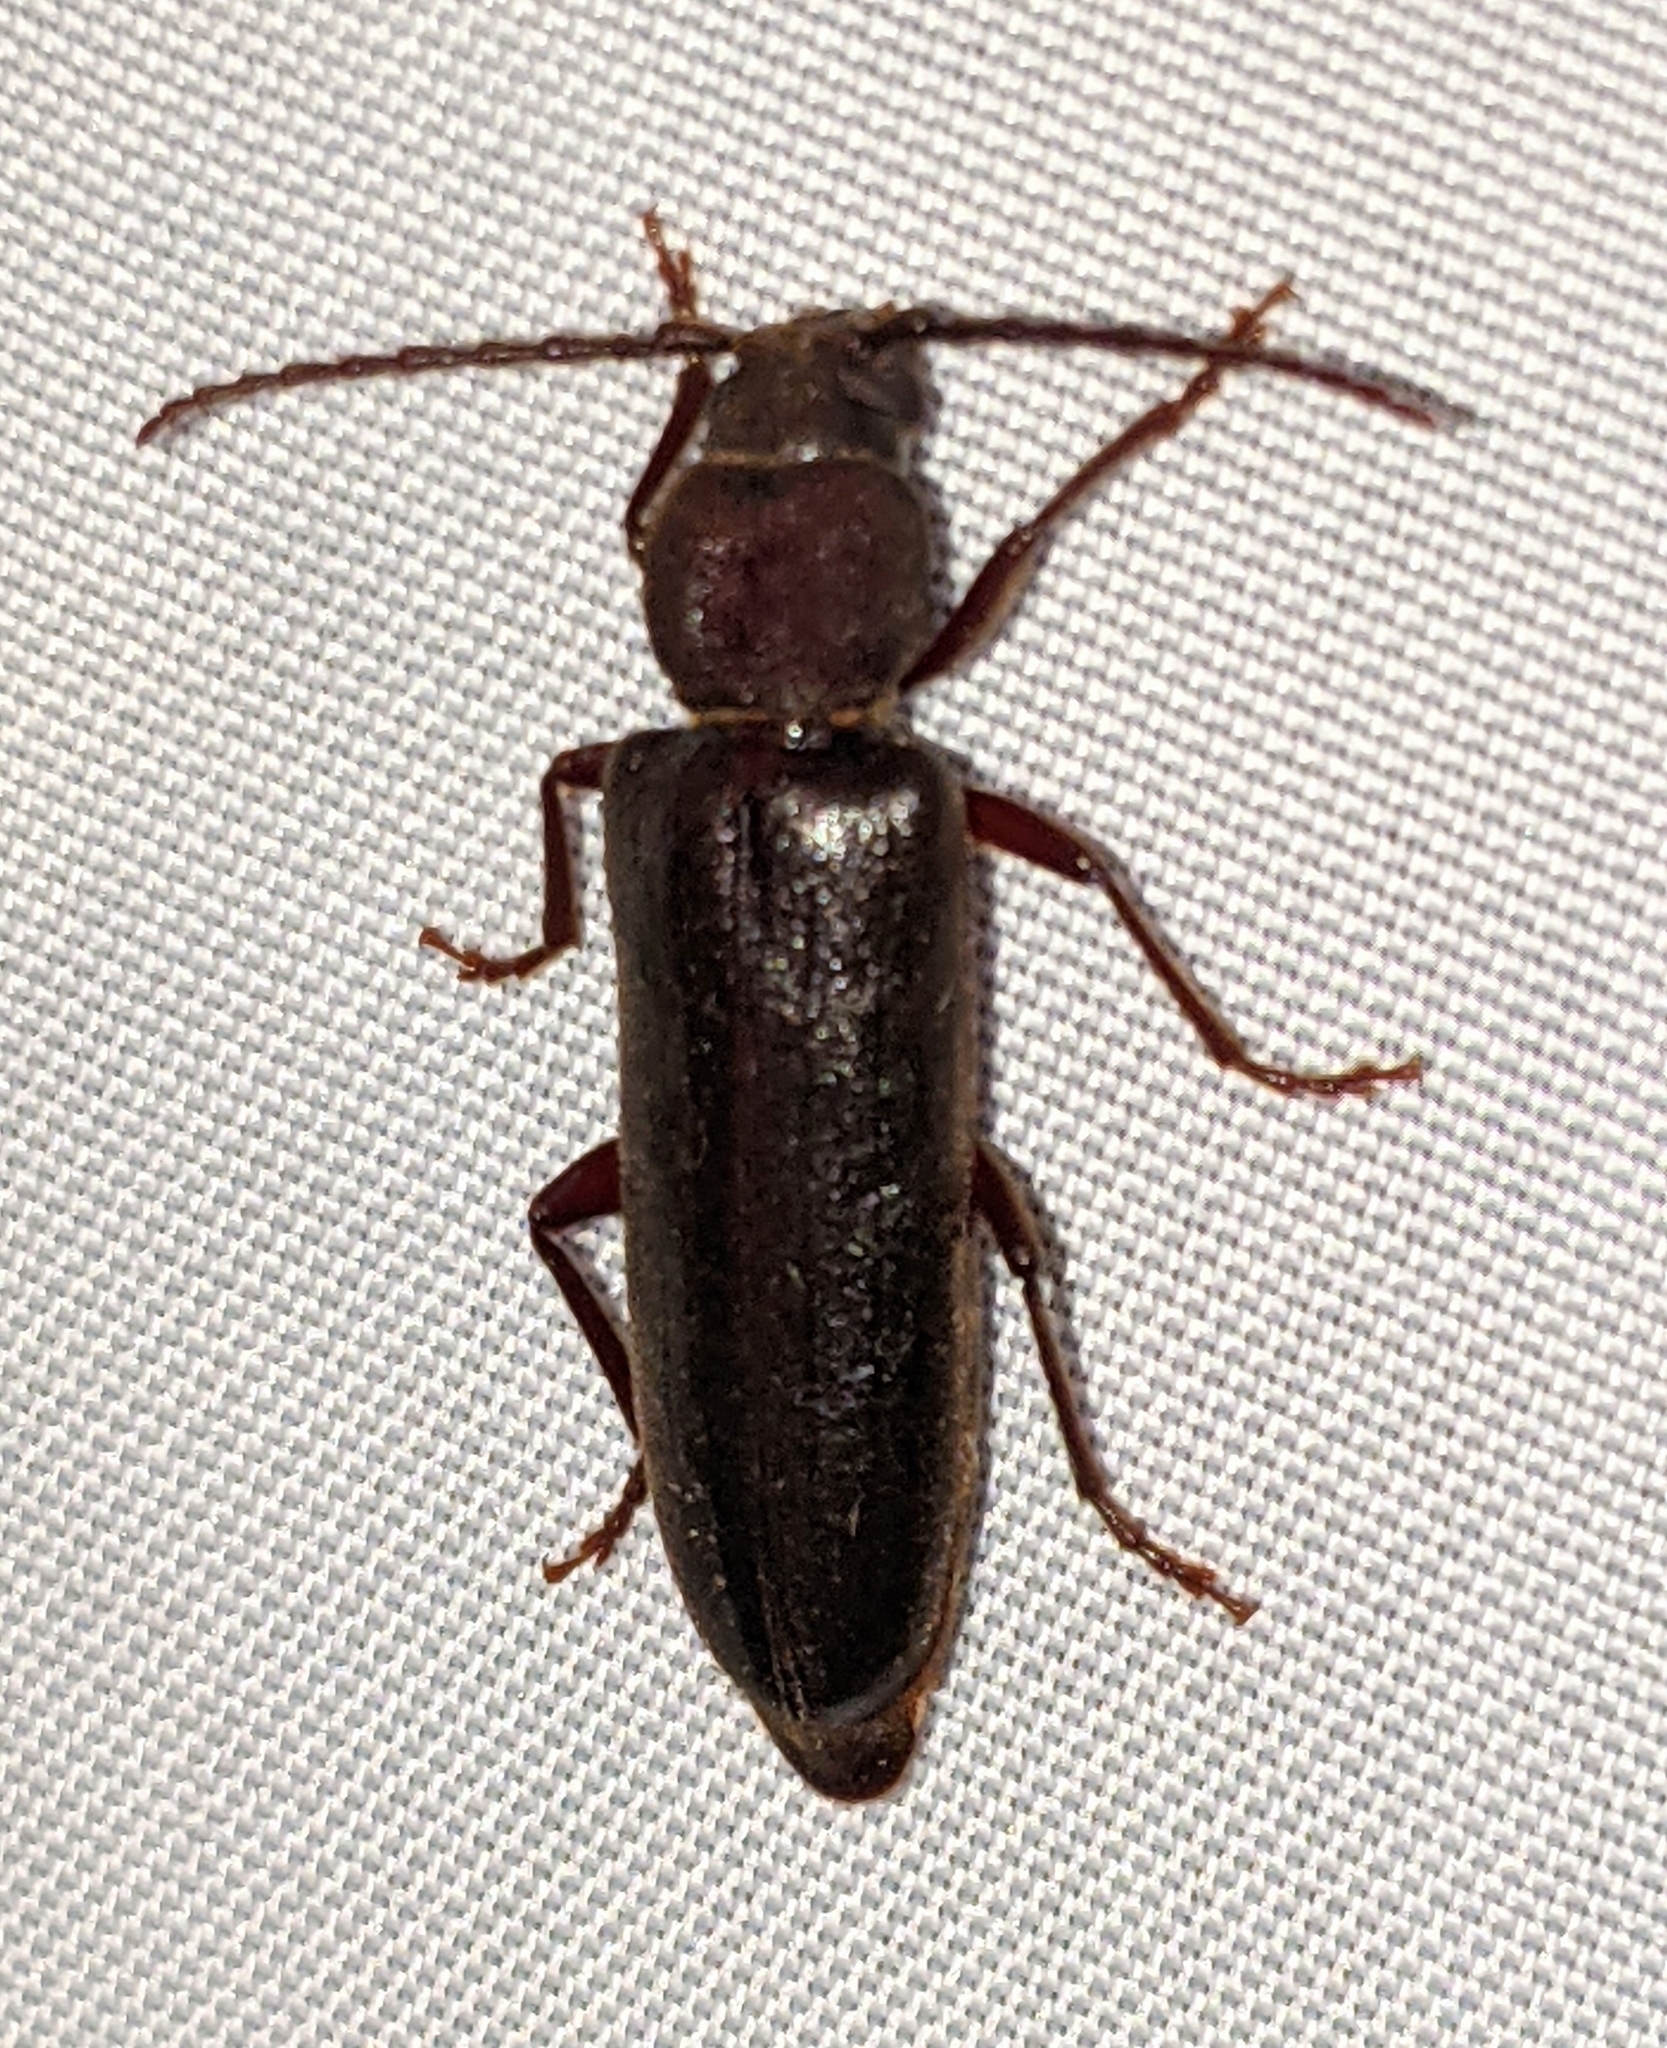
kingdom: Animalia
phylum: Arthropoda
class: Insecta
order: Coleoptera
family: Cerambycidae
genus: Megasemum
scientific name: Megasemum asperum
